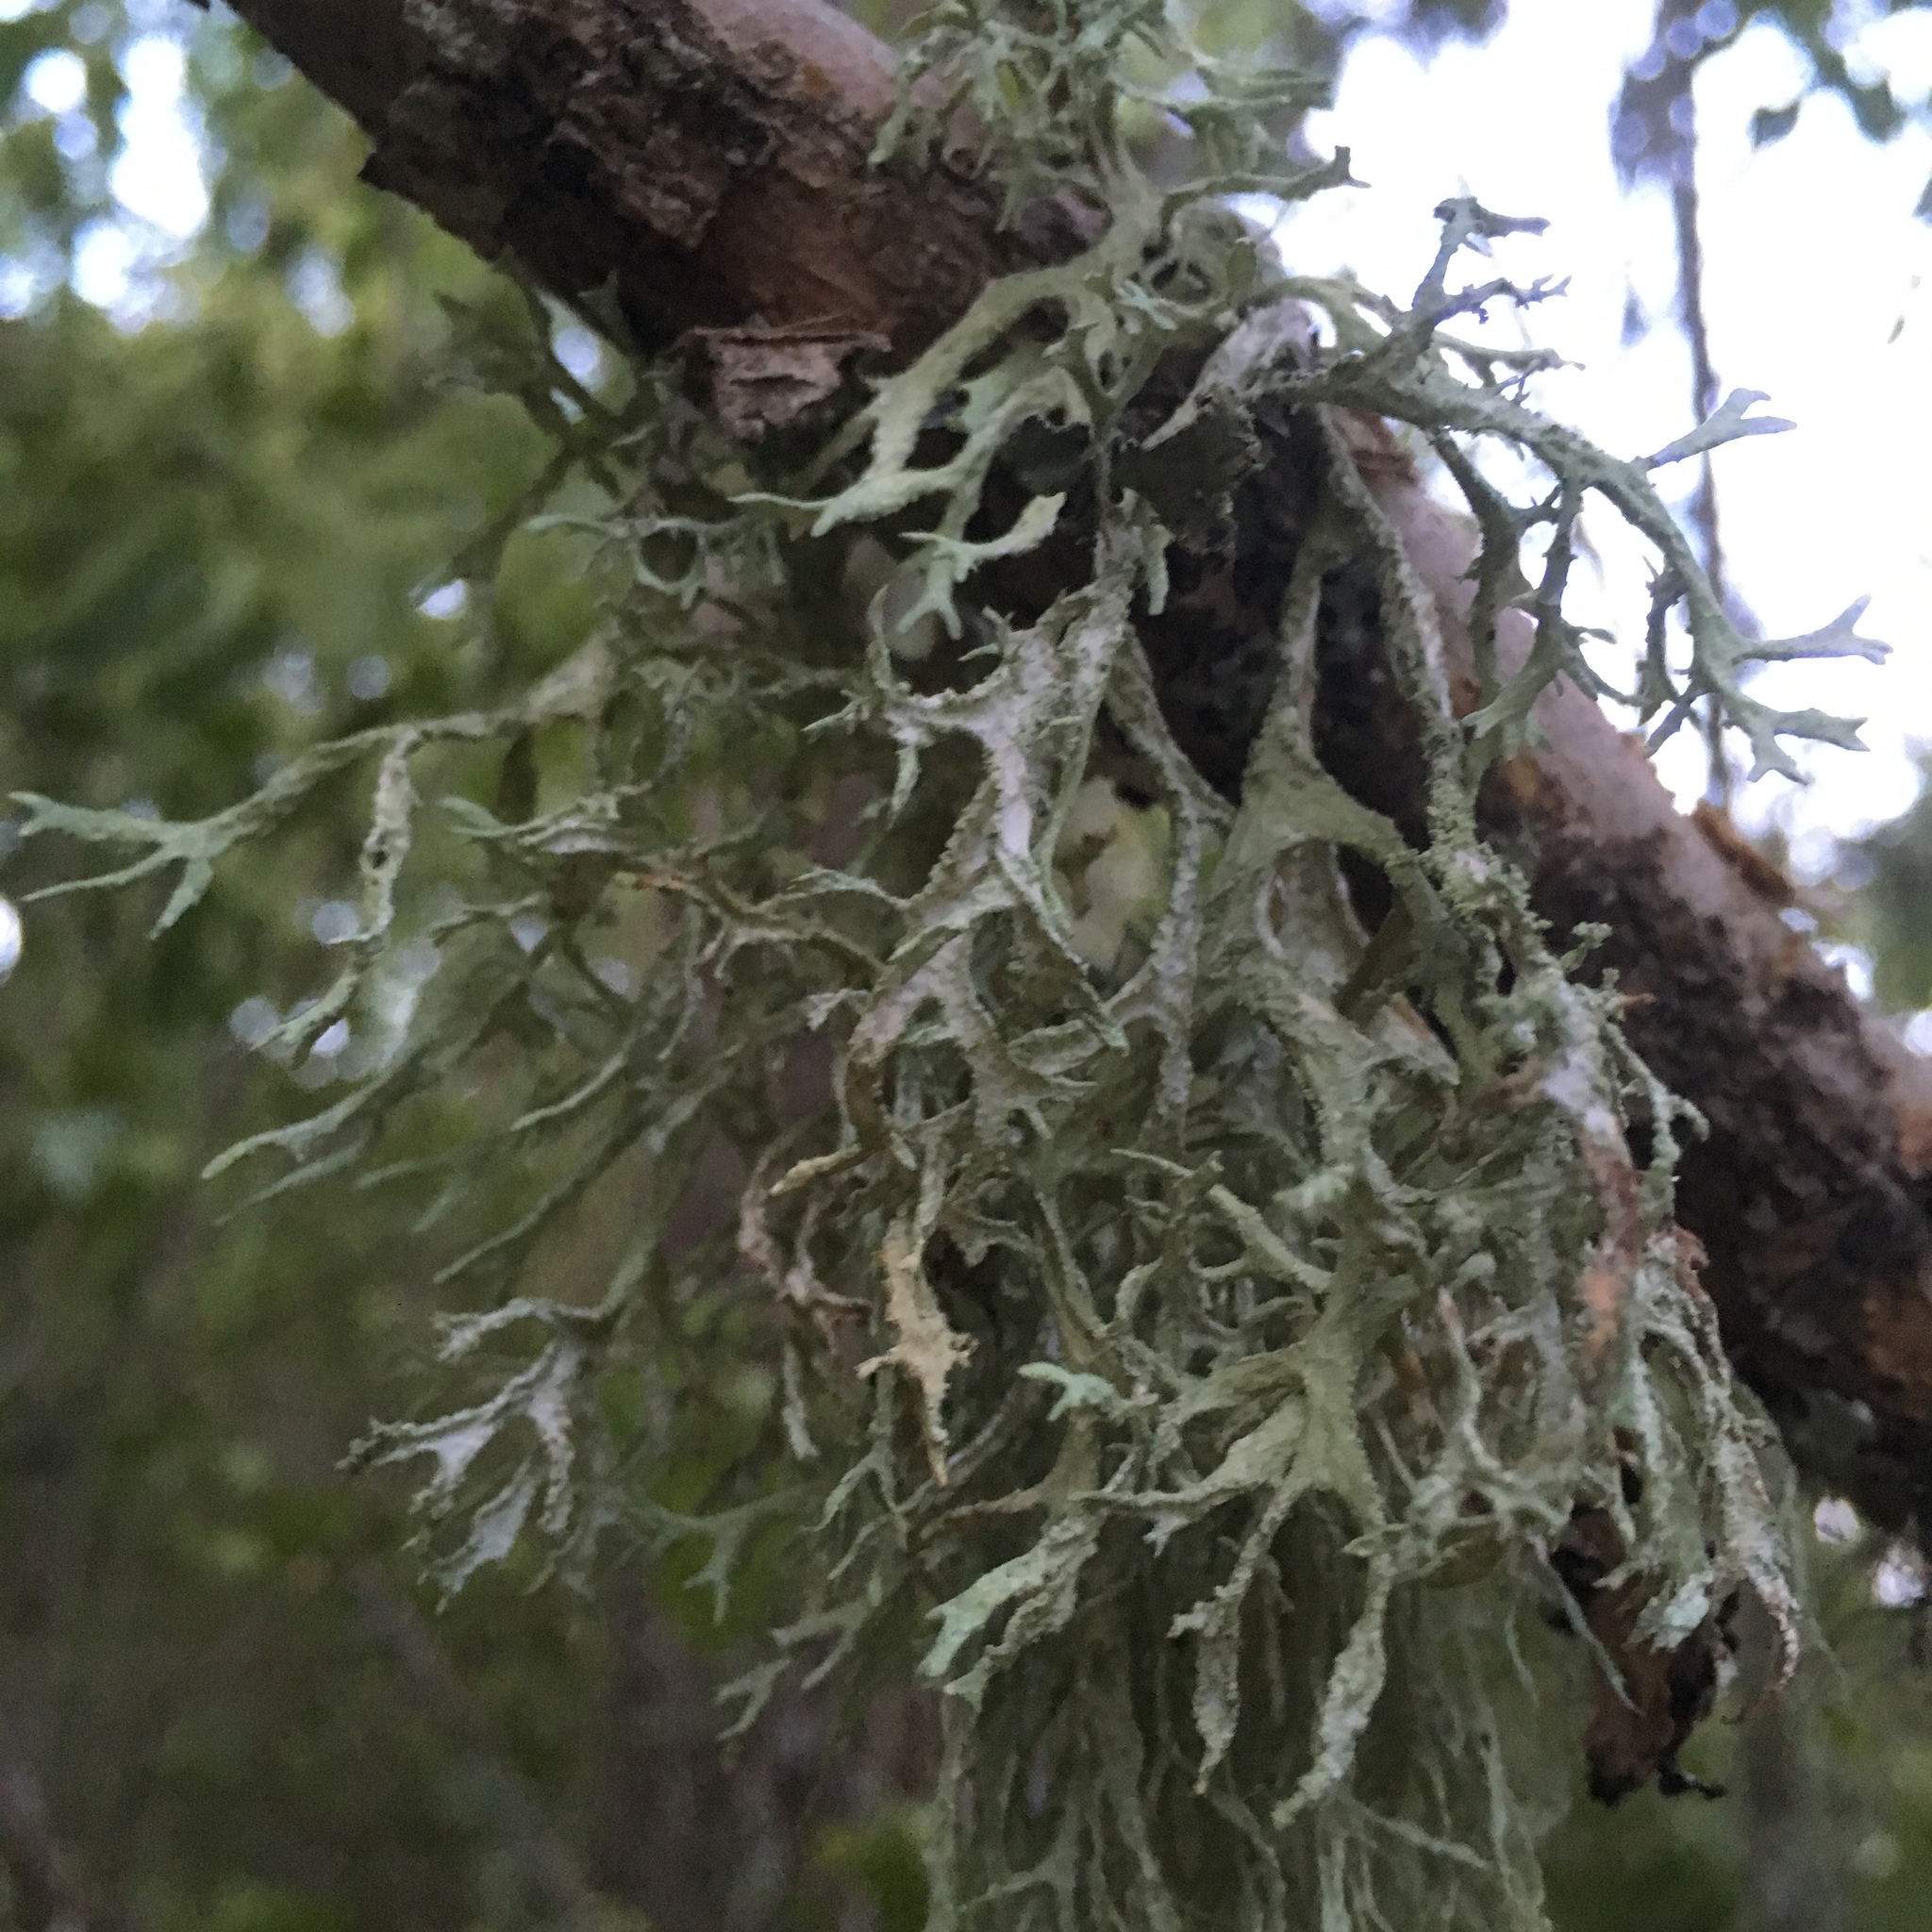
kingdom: Fungi
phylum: Ascomycota
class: Lecanoromycetes
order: Lecanorales
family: Parmeliaceae
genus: Evernia
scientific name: Evernia prunastri
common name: Oak moss
